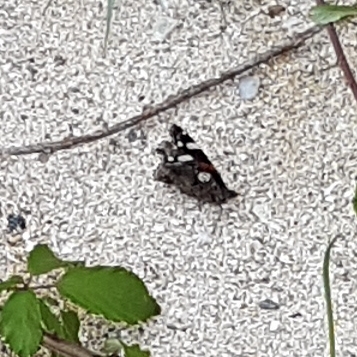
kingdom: Animalia
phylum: Arthropoda
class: Insecta
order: Lepidoptera
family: Nymphalidae
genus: Vanessa
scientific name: Vanessa atalanta
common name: Red admiral
